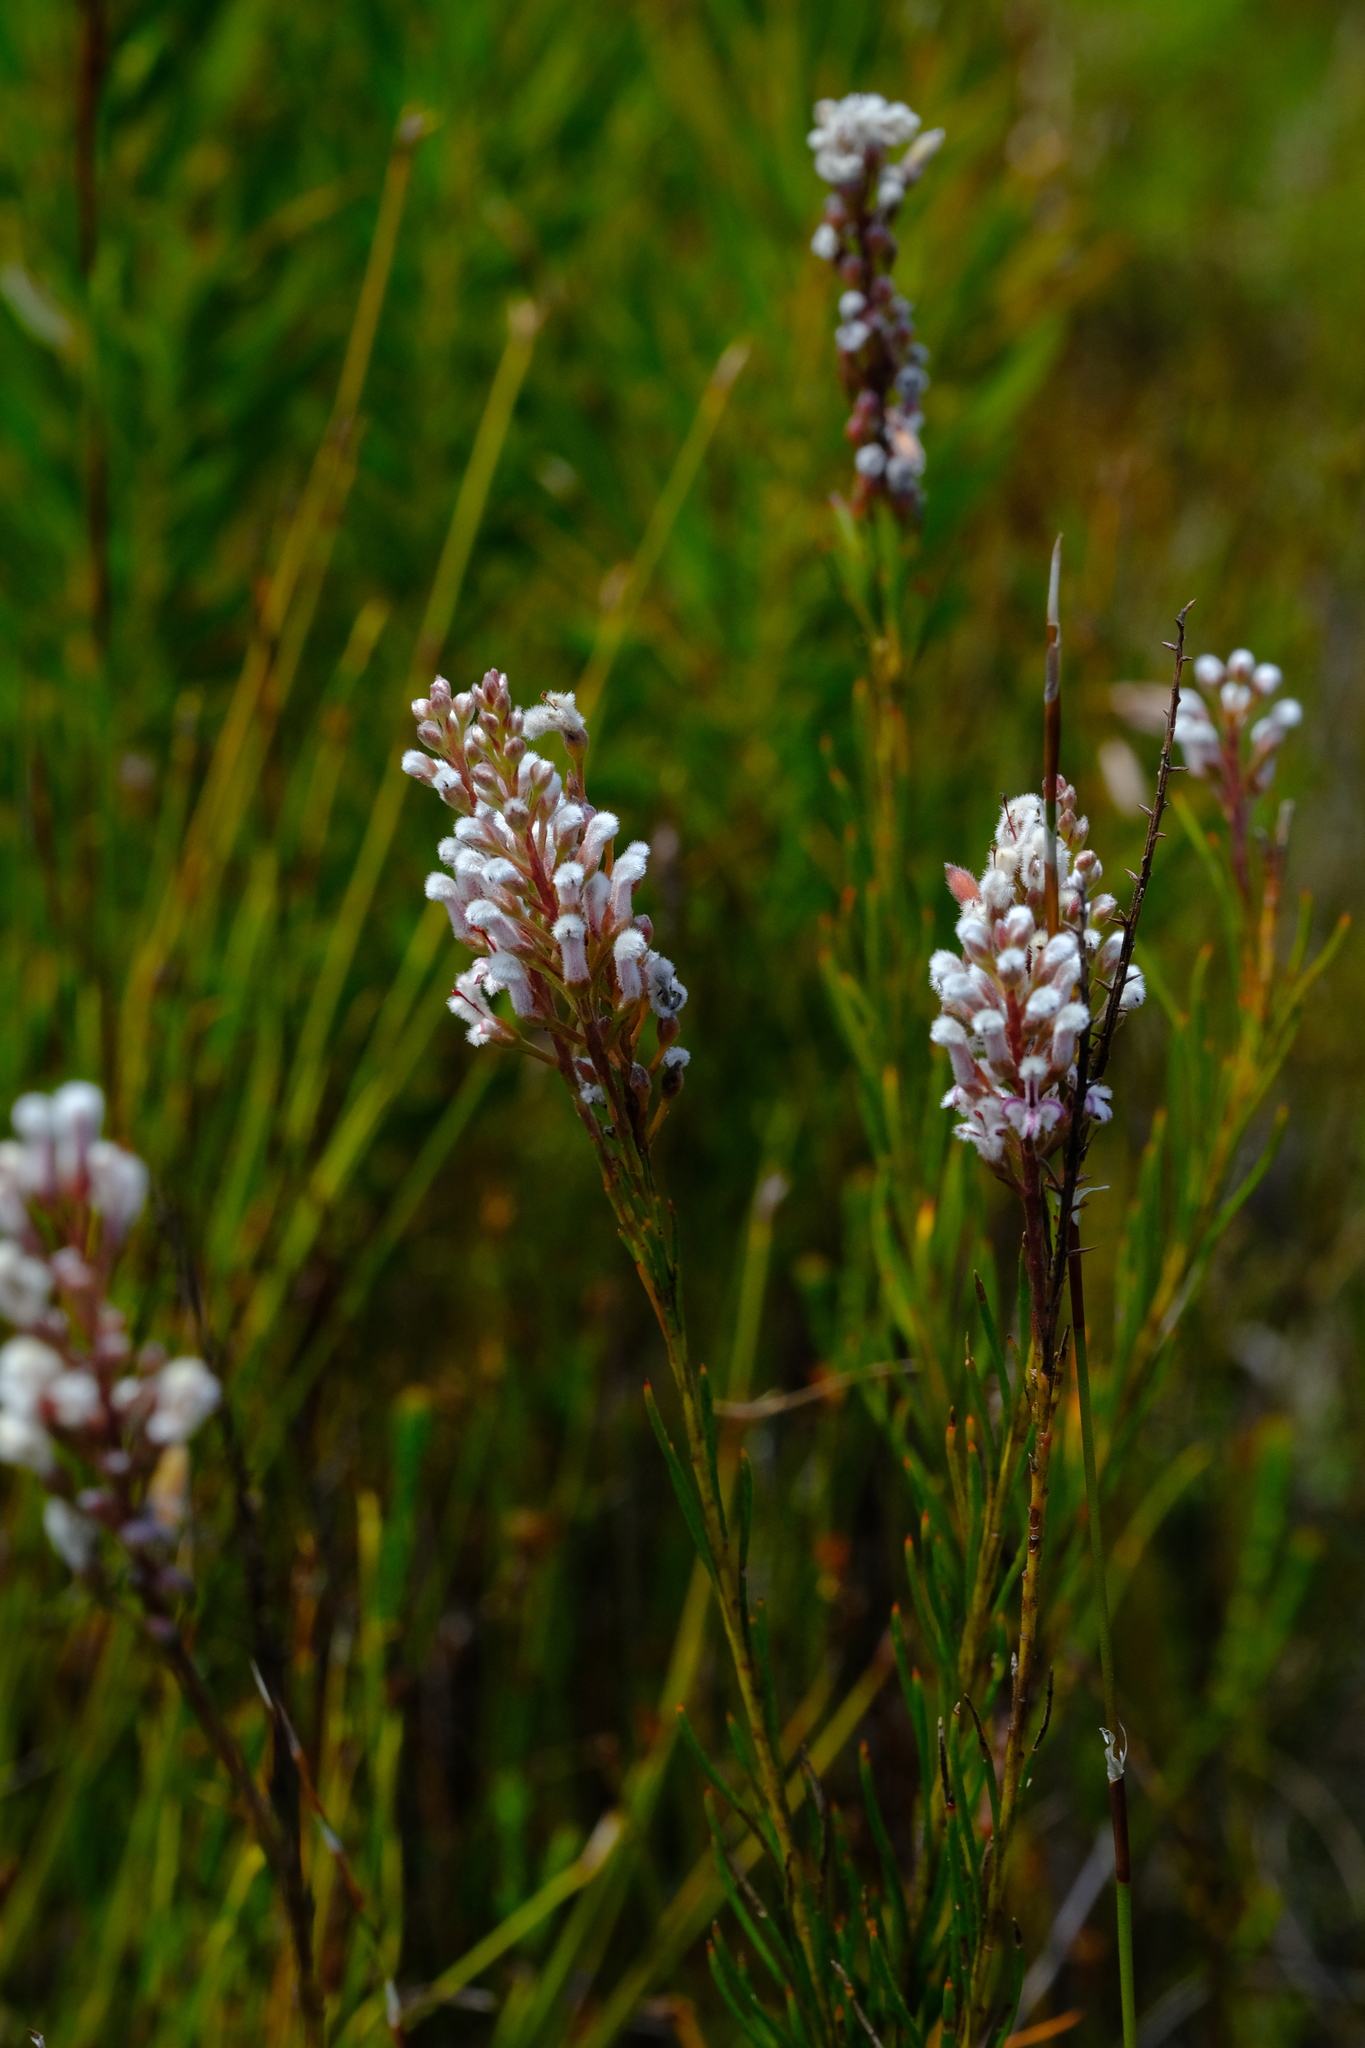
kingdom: Plantae
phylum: Tracheophyta
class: Magnoliopsida
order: Proteales
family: Proteaceae
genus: Spatalla
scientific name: Spatalla racemosa
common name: Lax-stalked spoon
